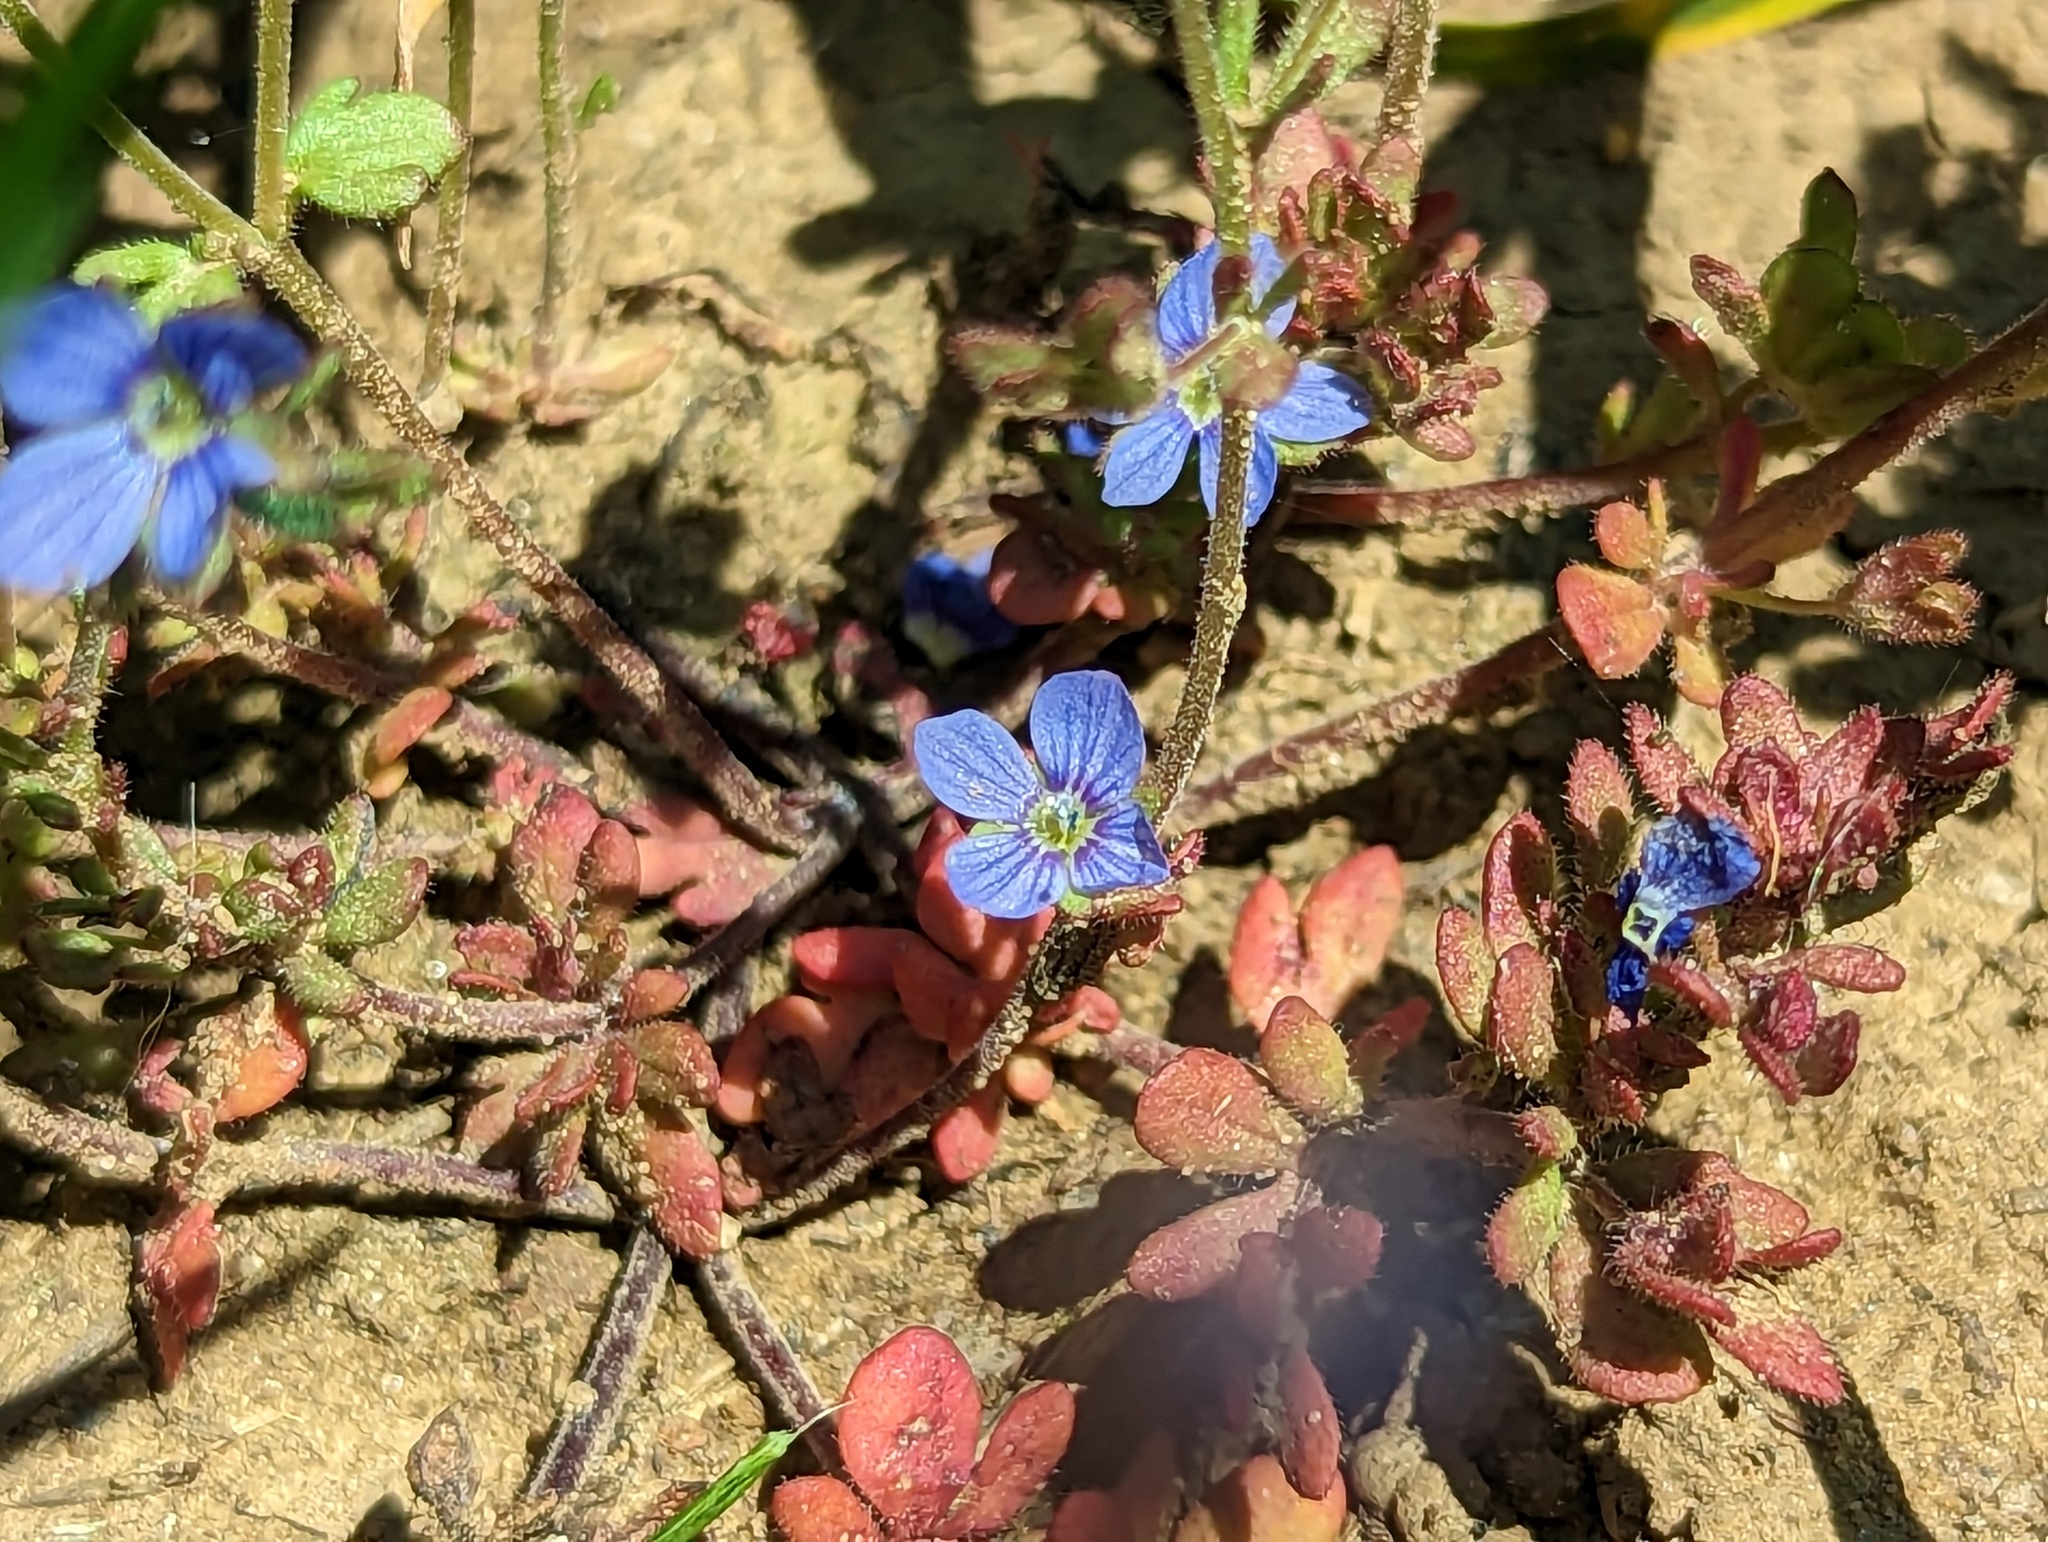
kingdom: Plantae
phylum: Tracheophyta
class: Magnoliopsida
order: Lamiales
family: Plantaginaceae
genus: Veronica
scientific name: Veronica triphyllos
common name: Fingered speedwell
